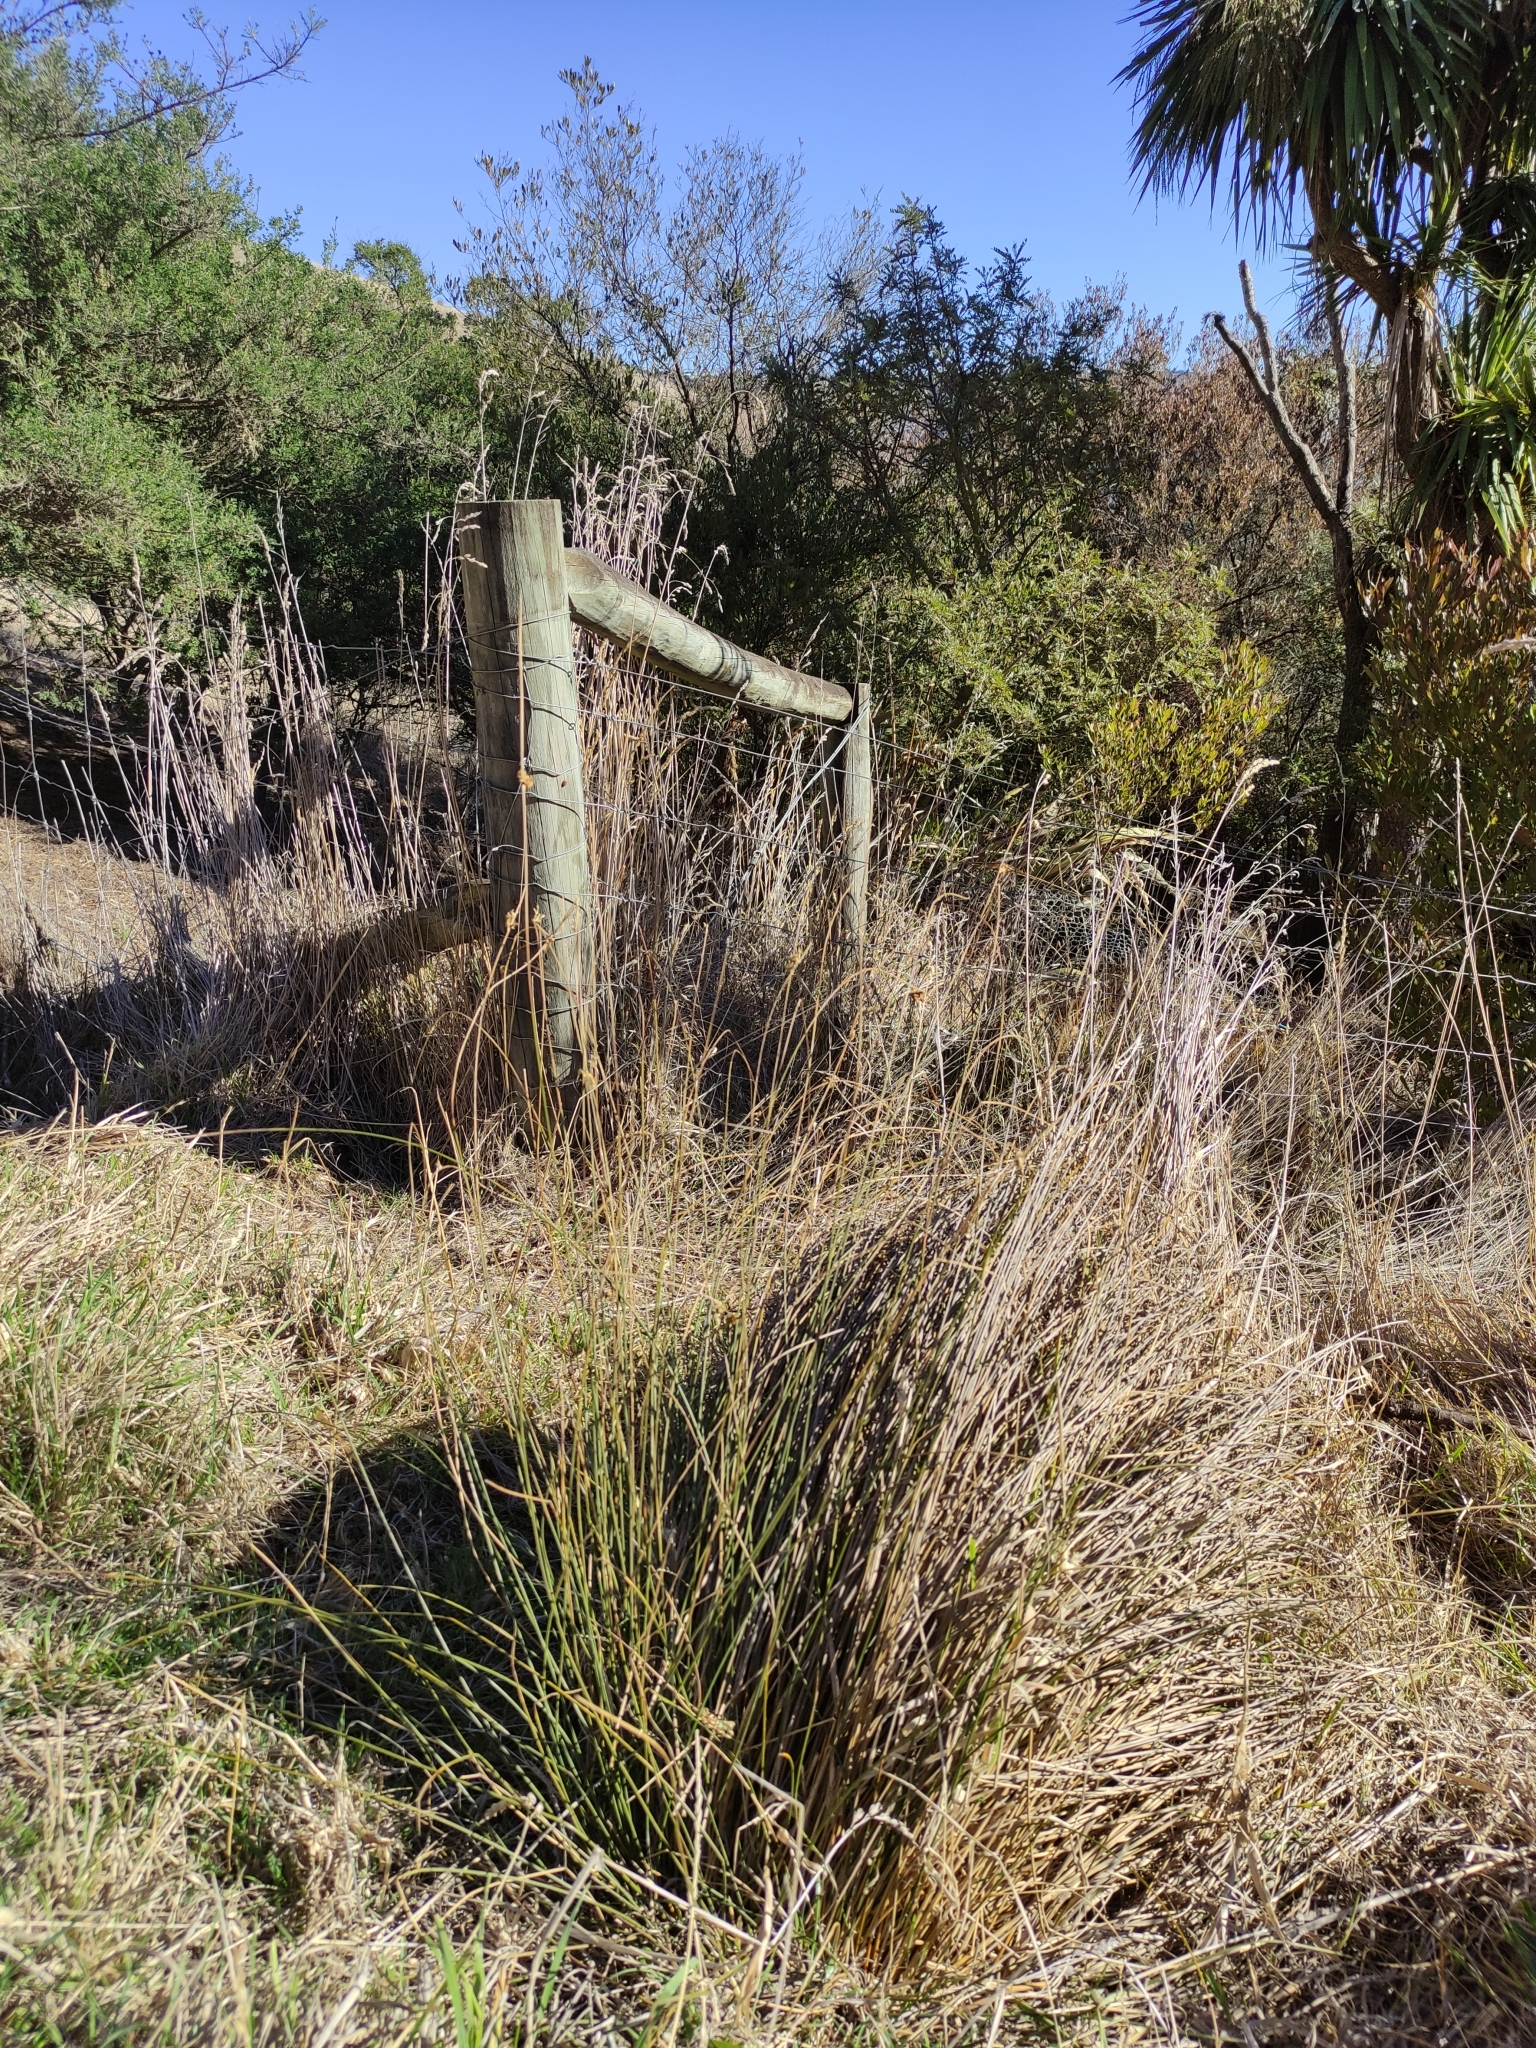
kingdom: Plantae
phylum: Tracheophyta
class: Liliopsida
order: Poales
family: Cyperaceae
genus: Ficinia
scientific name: Ficinia nodosa
